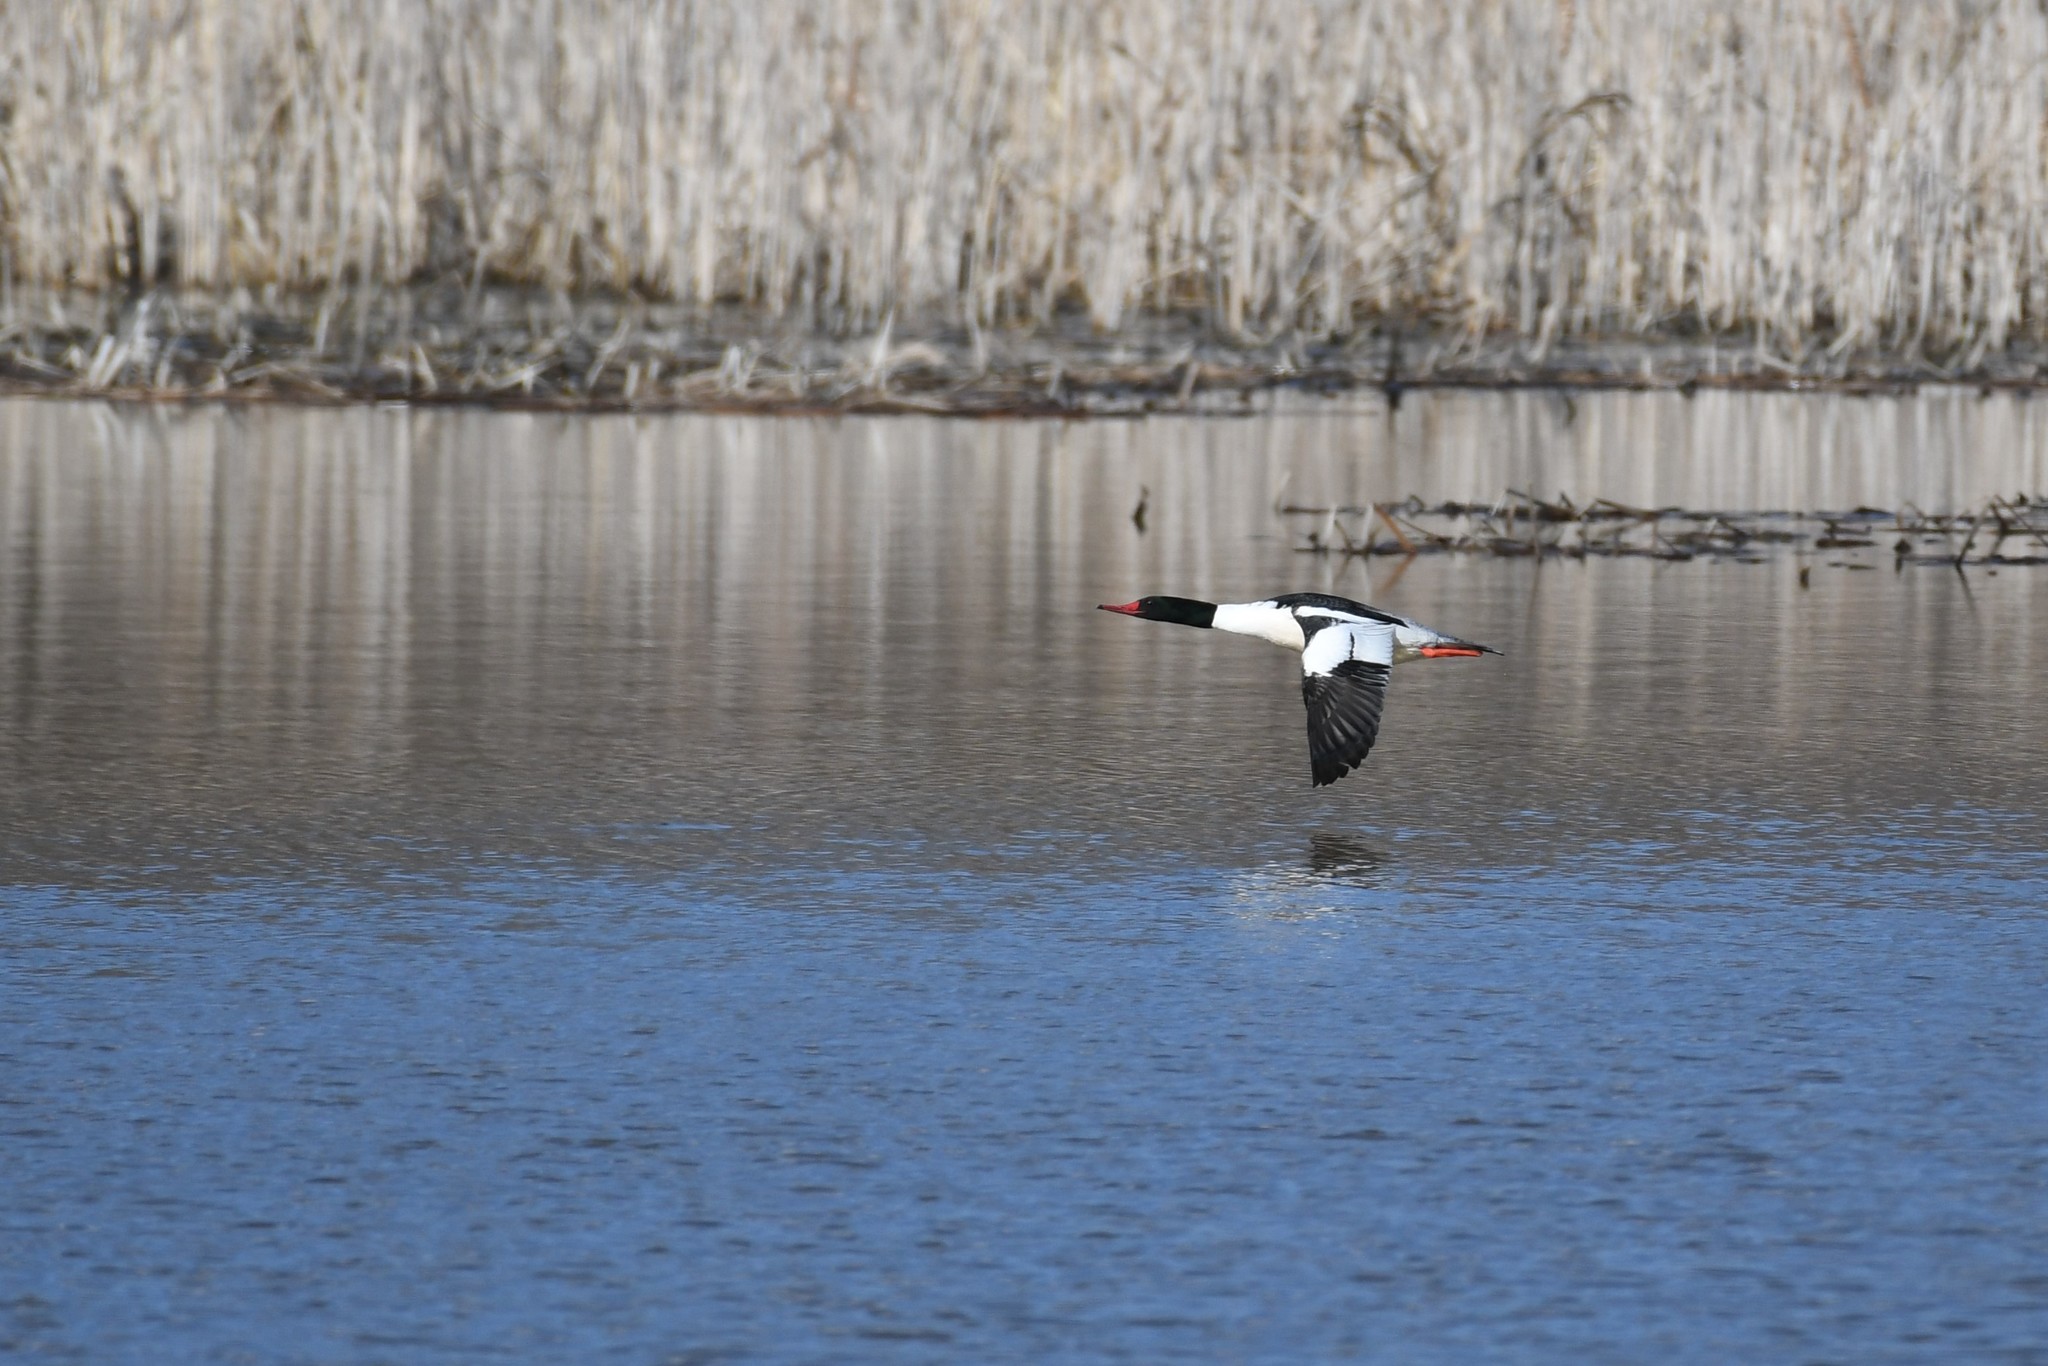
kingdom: Animalia
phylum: Chordata
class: Aves
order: Anseriformes
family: Anatidae
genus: Mergus
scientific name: Mergus merganser
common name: Common merganser
